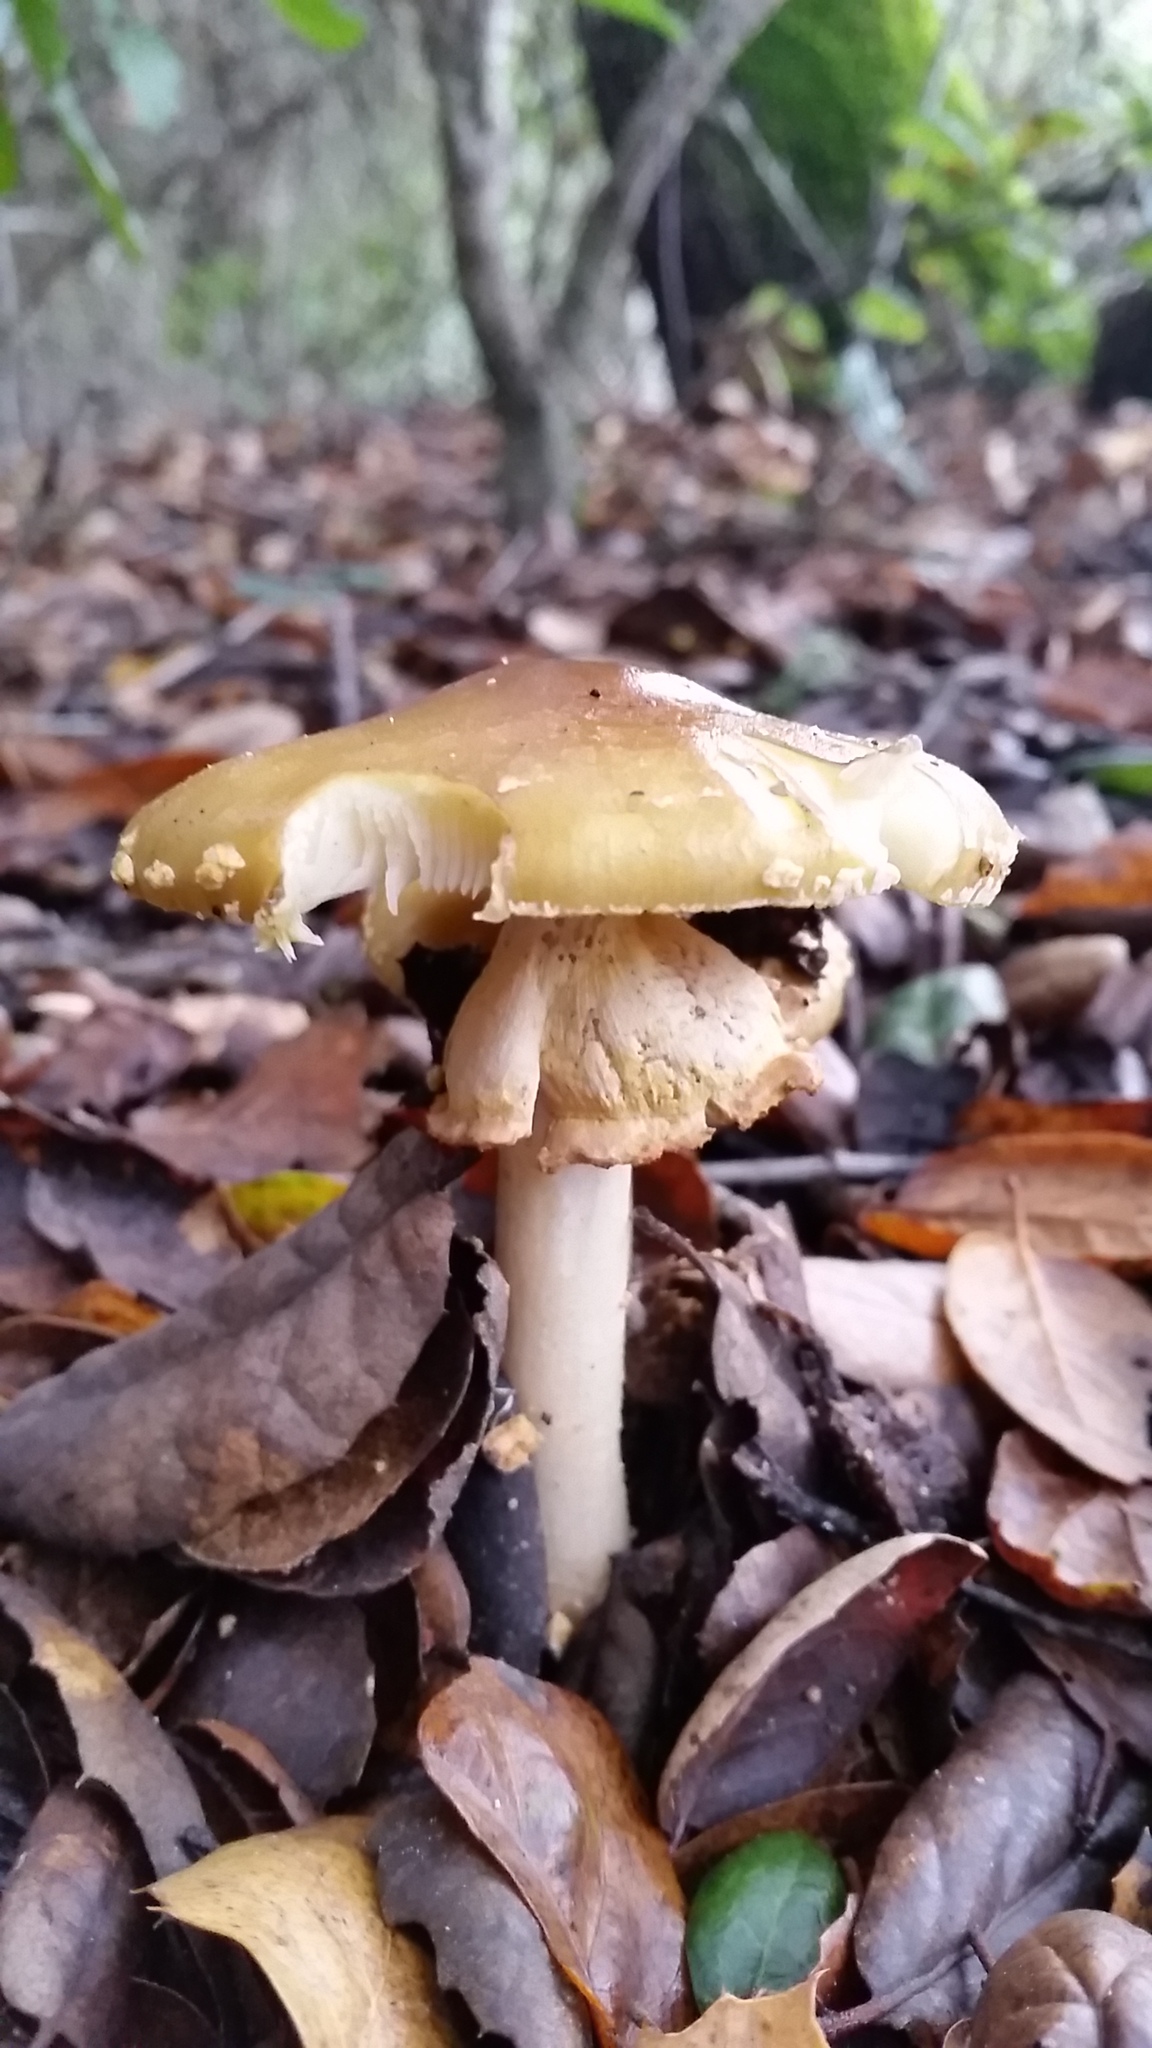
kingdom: Fungi
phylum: Basidiomycota
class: Agaricomycetes
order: Agaricales
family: Amanitaceae
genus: Amanita
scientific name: Amanita augusta
